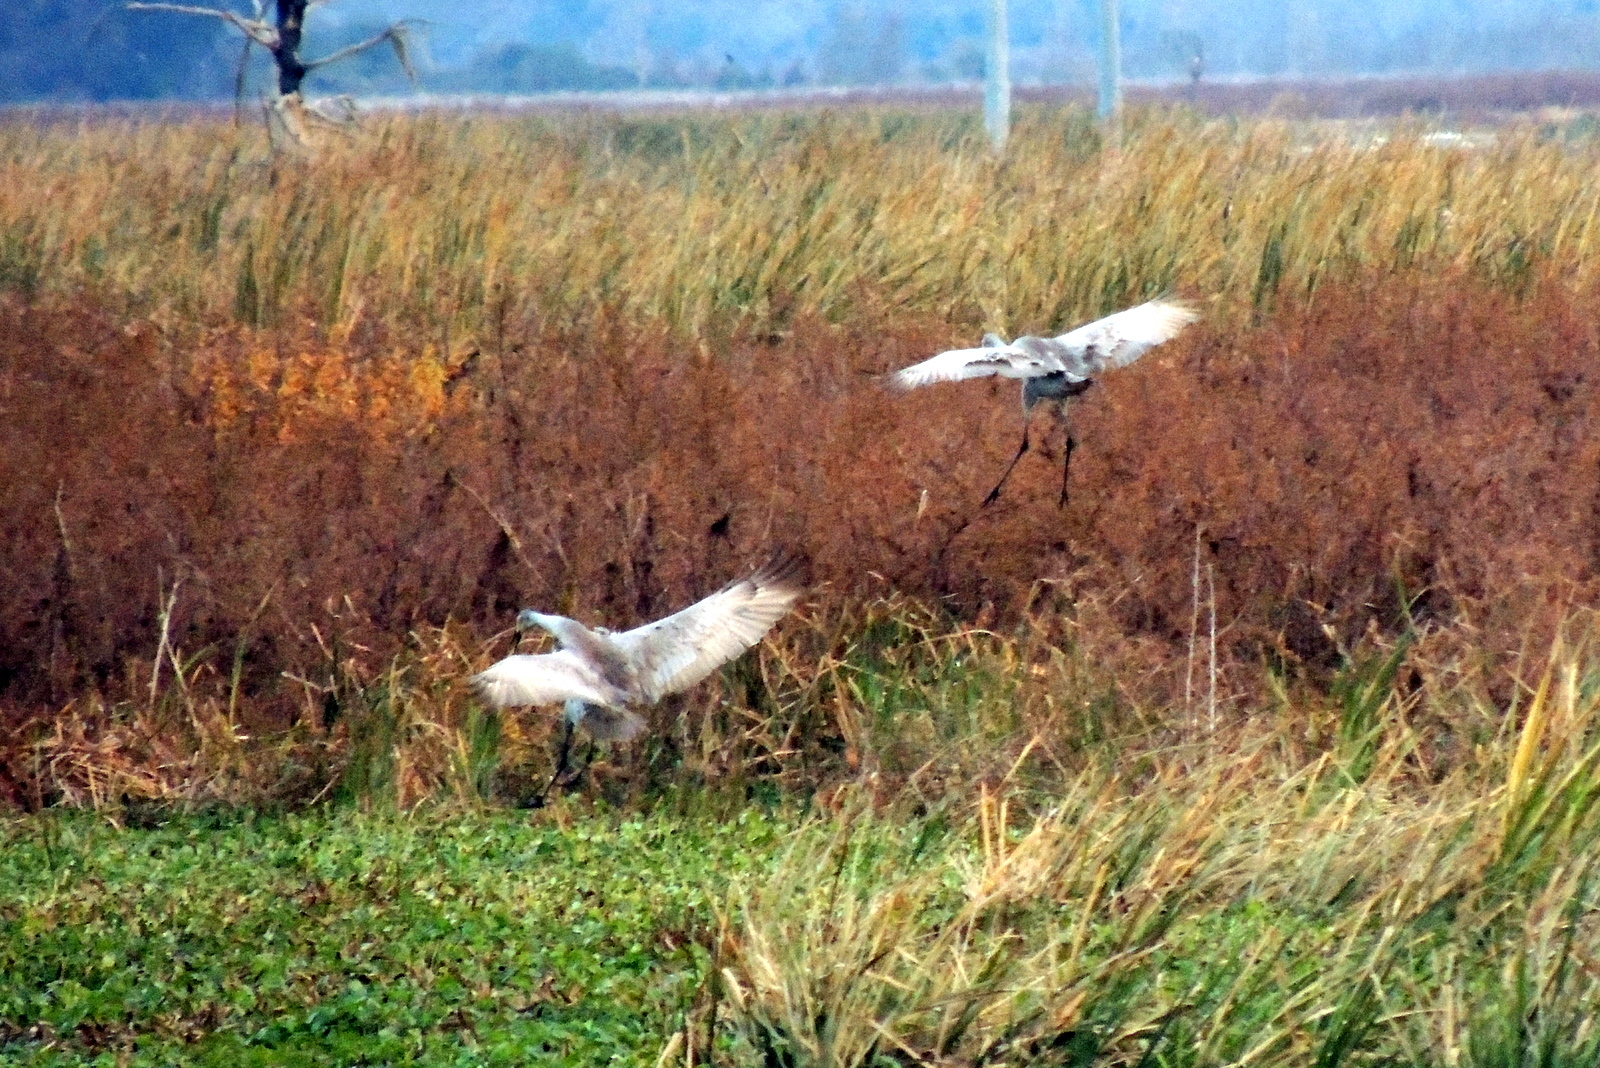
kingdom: Animalia
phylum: Chordata
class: Aves
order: Gruiformes
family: Gruidae
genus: Grus
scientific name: Grus canadensis
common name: Sandhill crane
